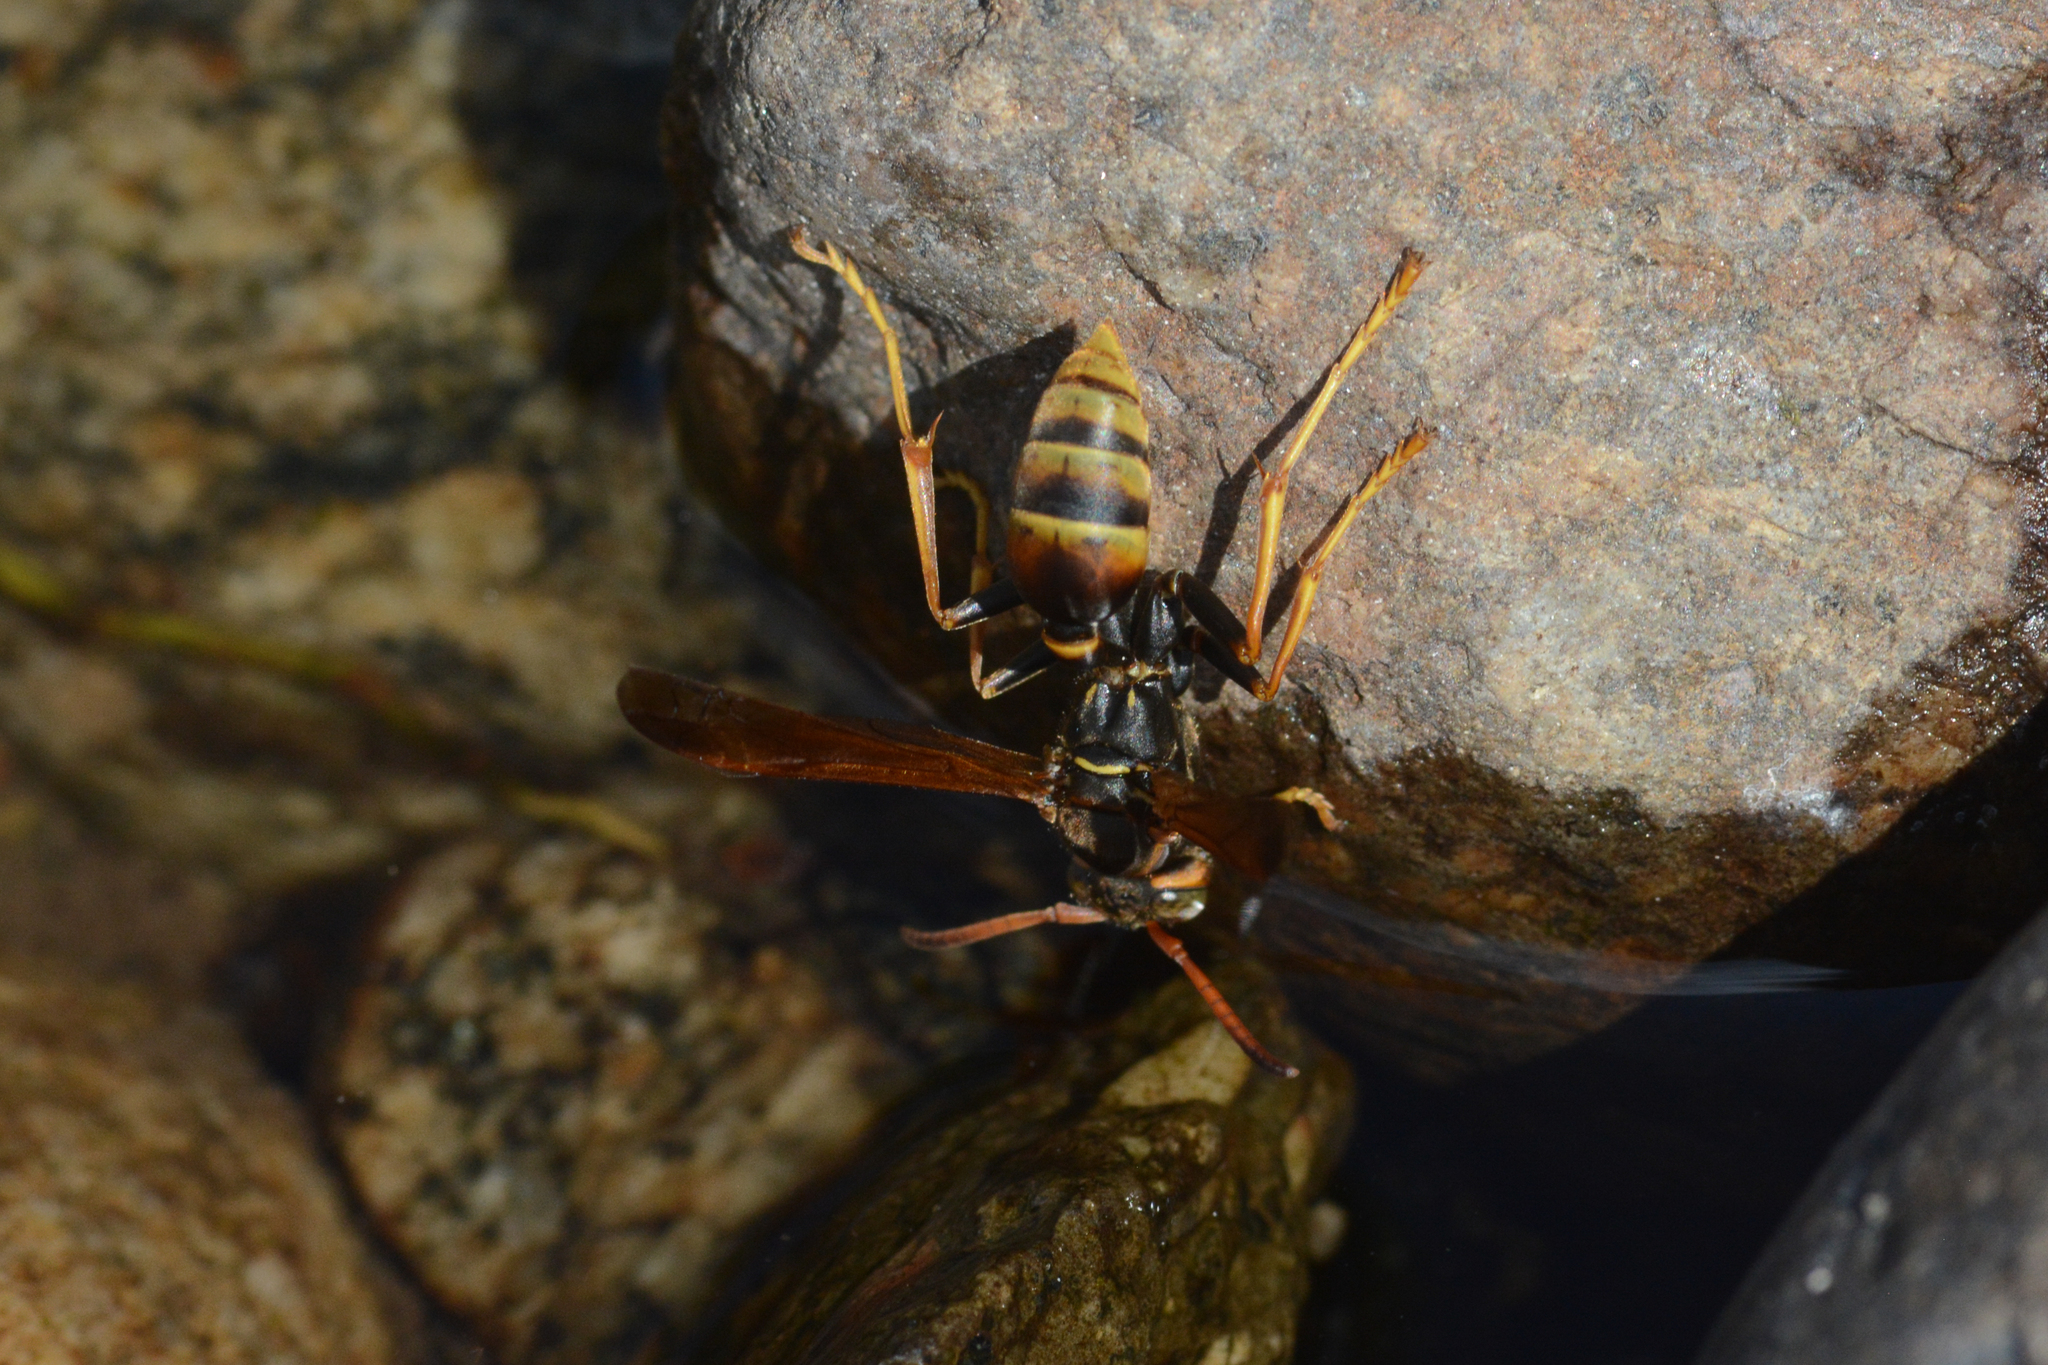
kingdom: Animalia
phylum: Arthropoda
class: Insecta
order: Hymenoptera
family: Vespidae
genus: Mischocyttarus
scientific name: Mischocyttarus flavitarsis
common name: Wasp
